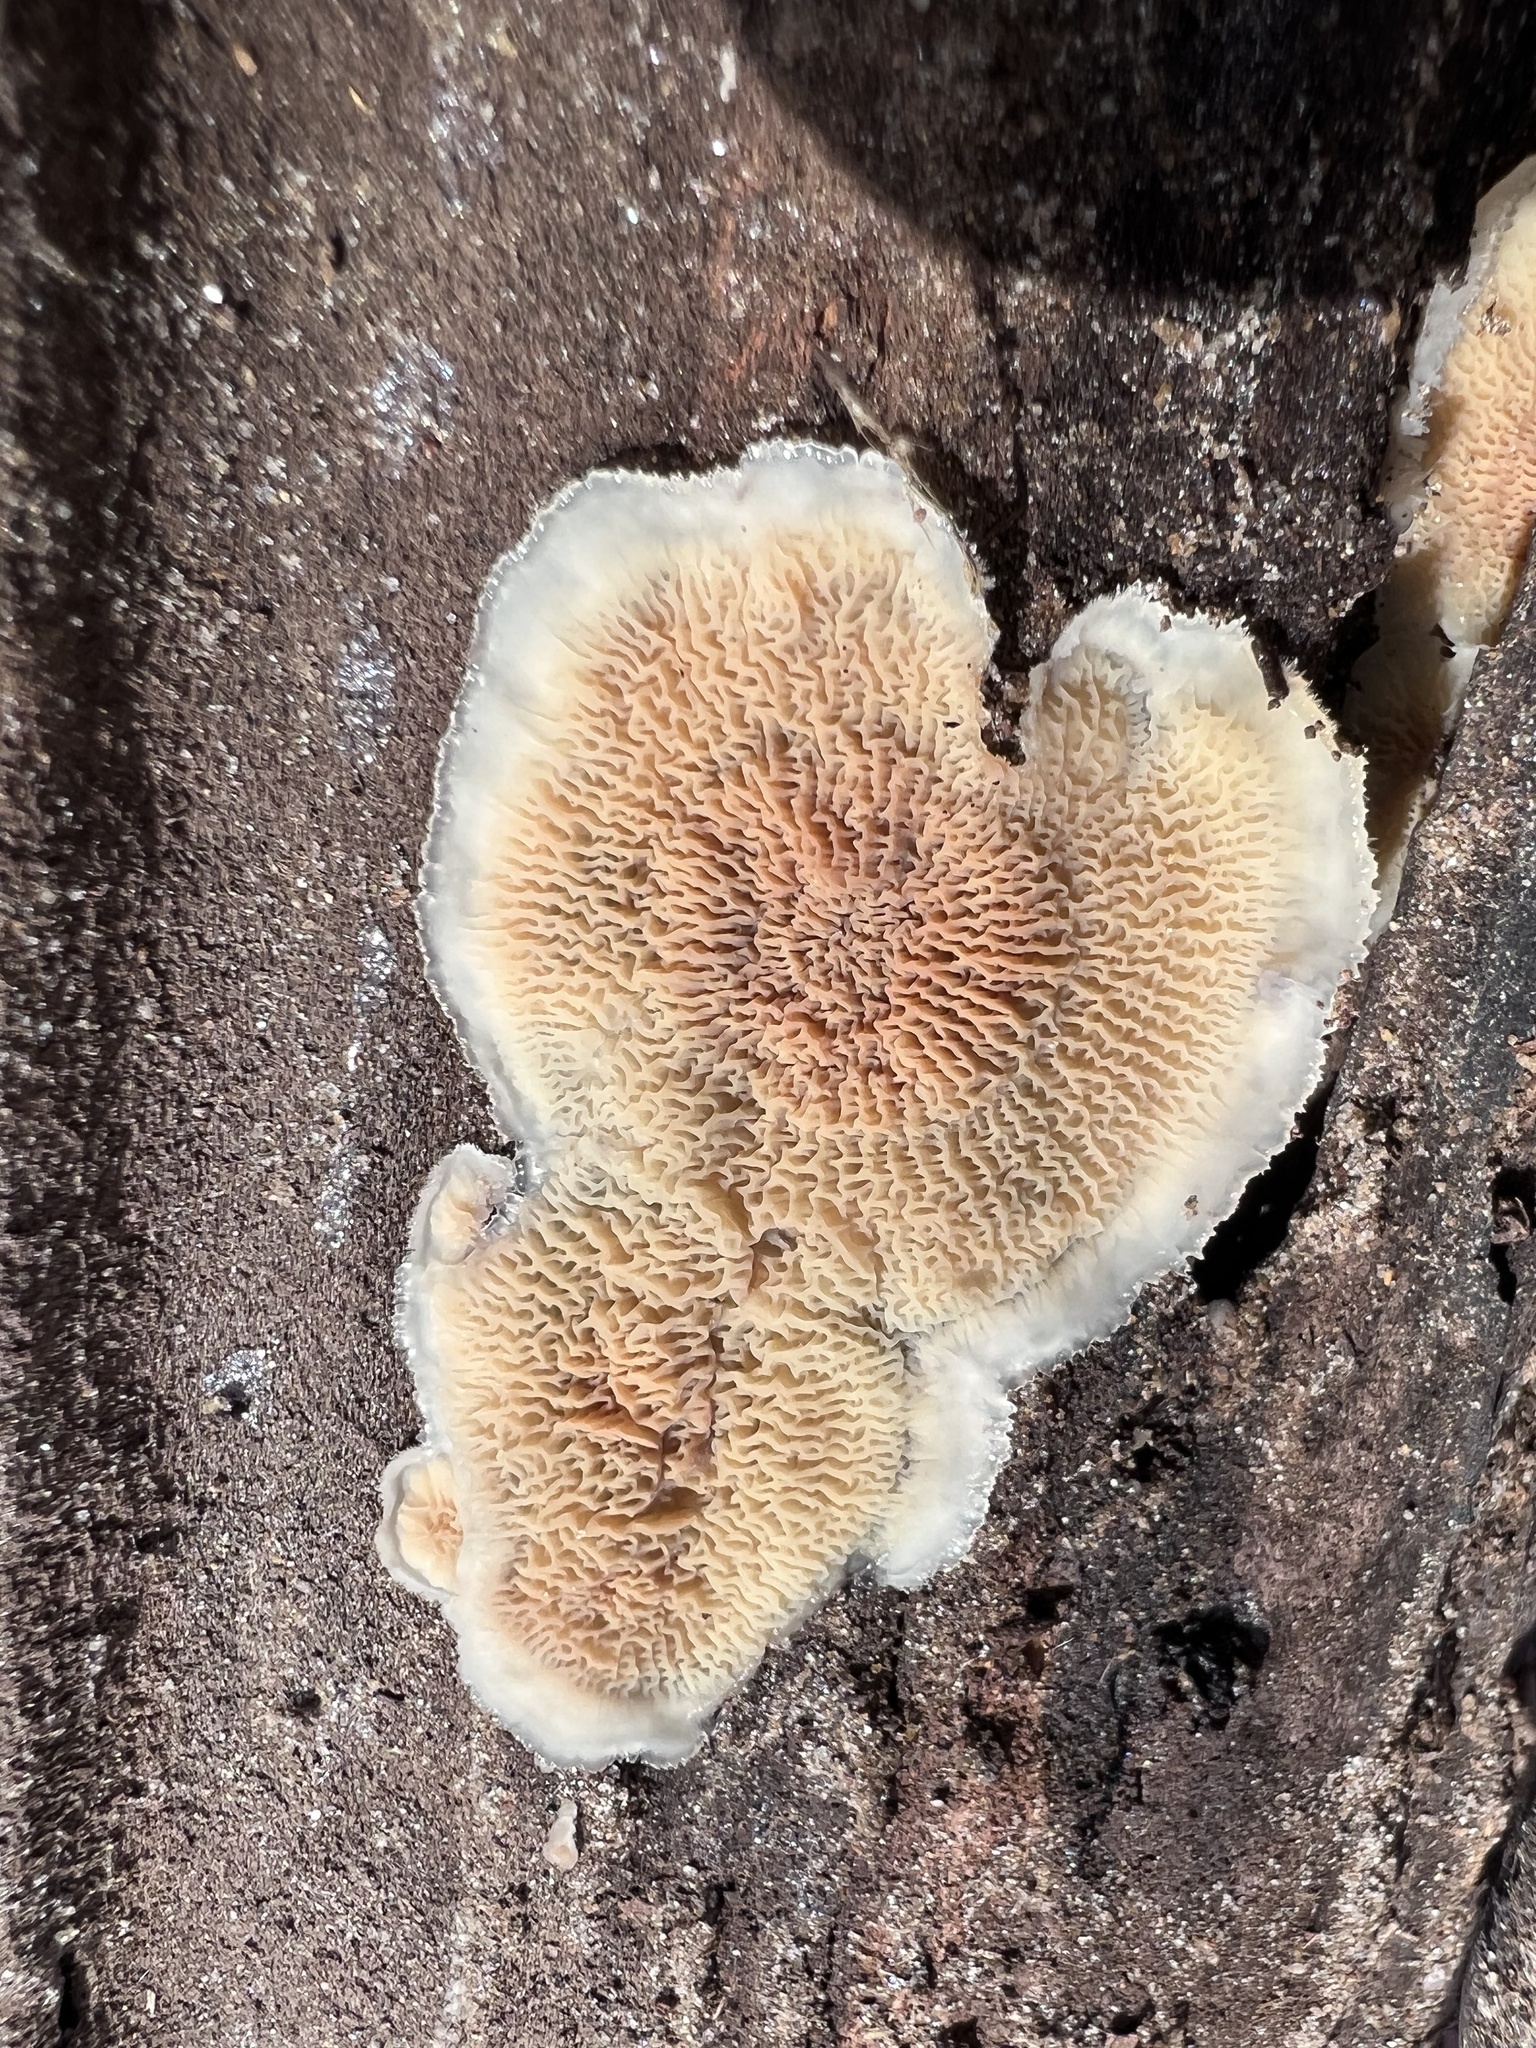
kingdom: Fungi
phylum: Basidiomycota
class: Agaricomycetes
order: Polyporales
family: Meruliaceae
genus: Phlebia
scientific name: Phlebia tremellosa
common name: Jelly rot
